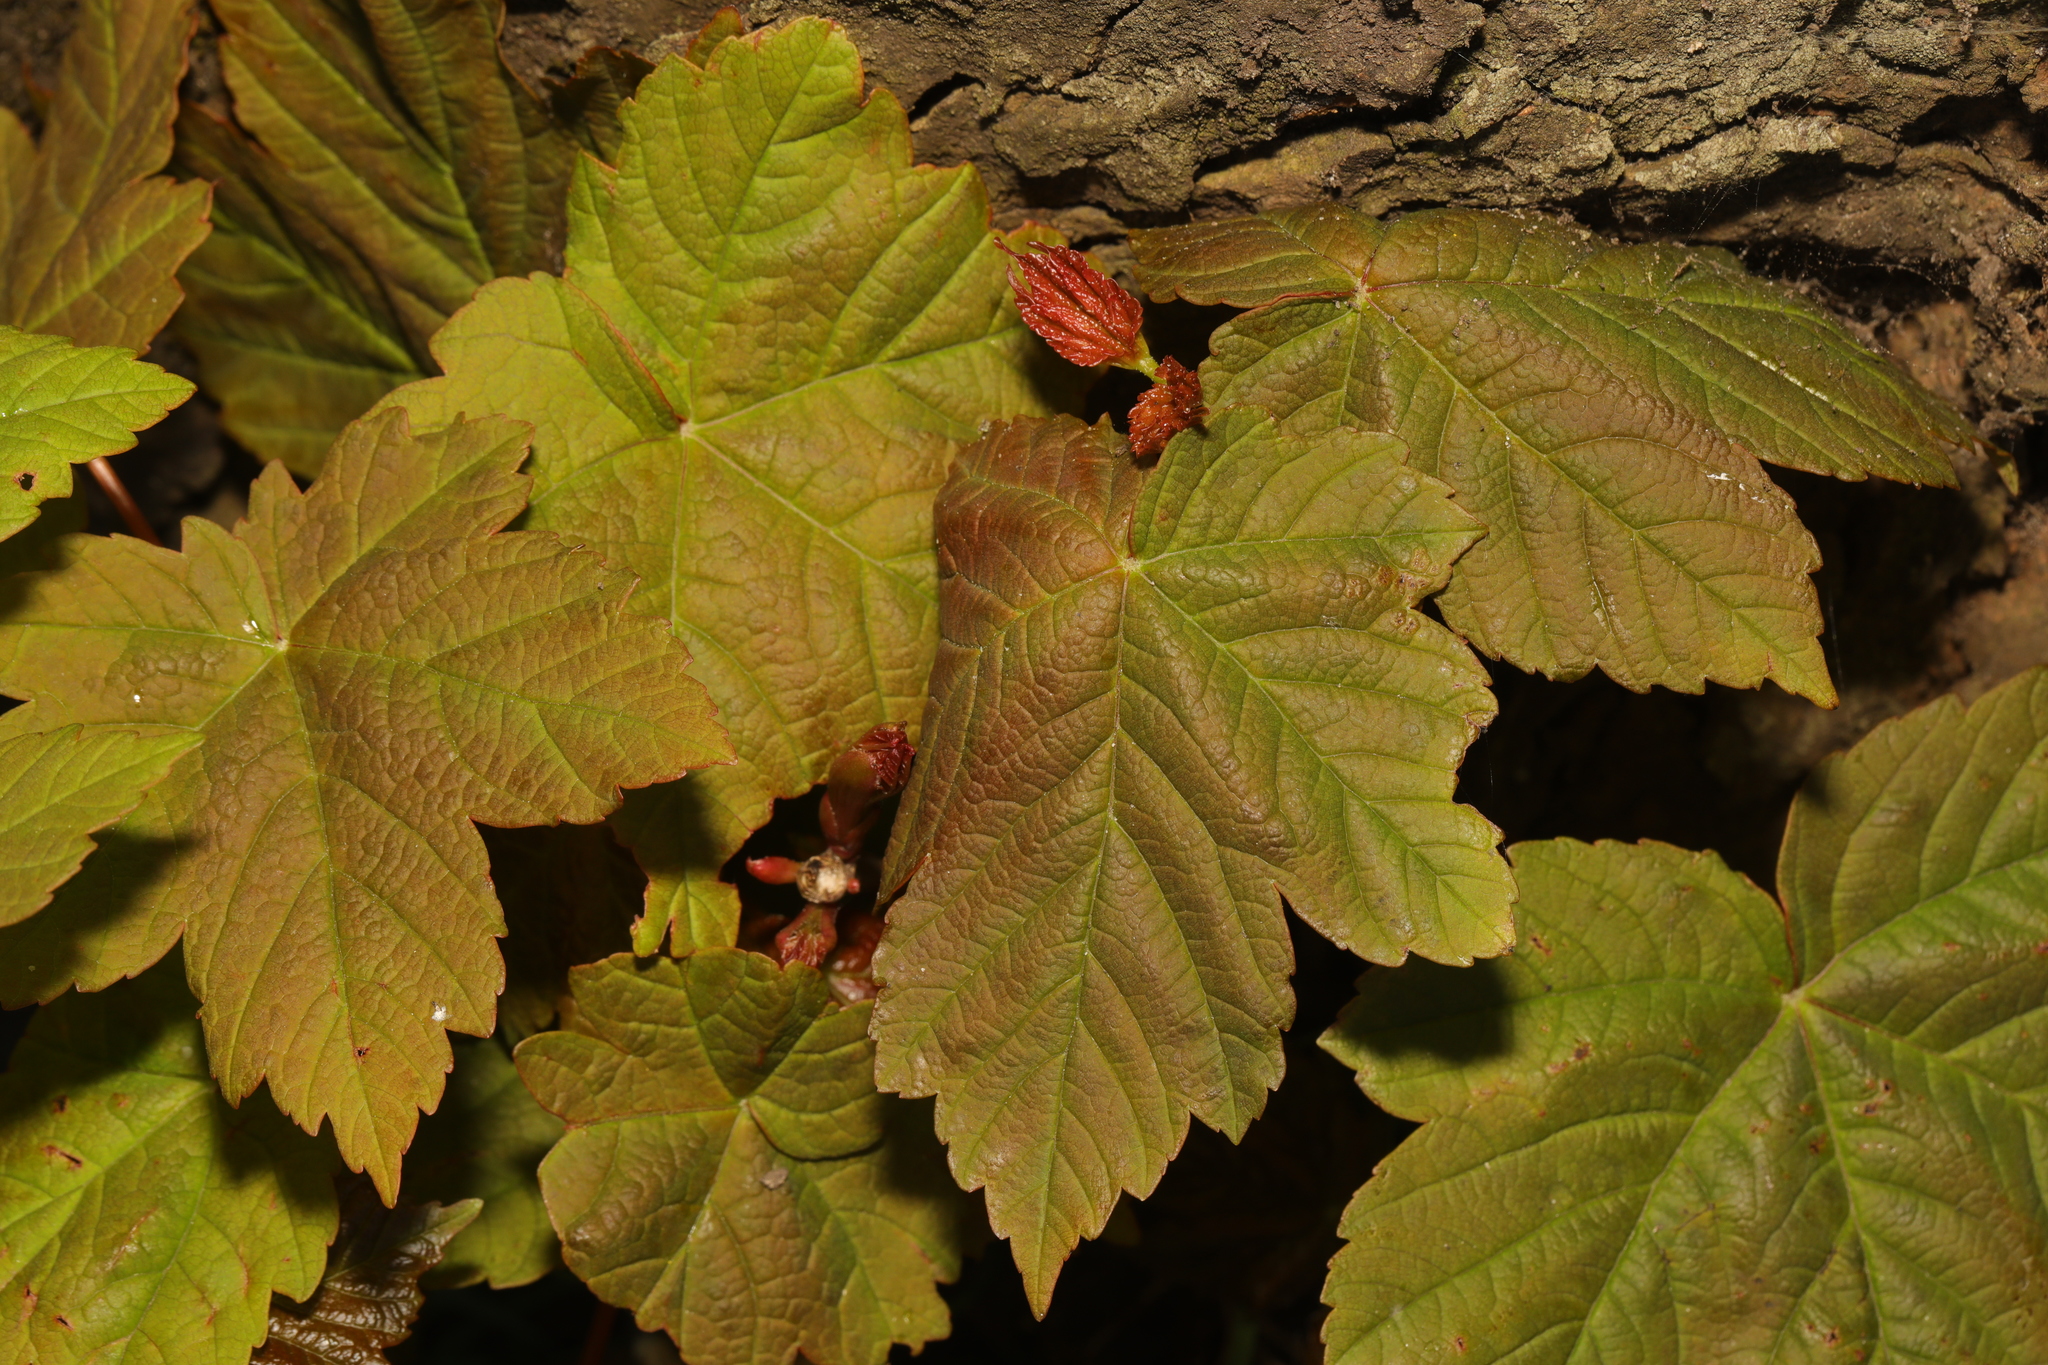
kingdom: Plantae
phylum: Tracheophyta
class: Magnoliopsida
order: Sapindales
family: Sapindaceae
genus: Acer
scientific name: Acer pseudoplatanus
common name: Sycamore
